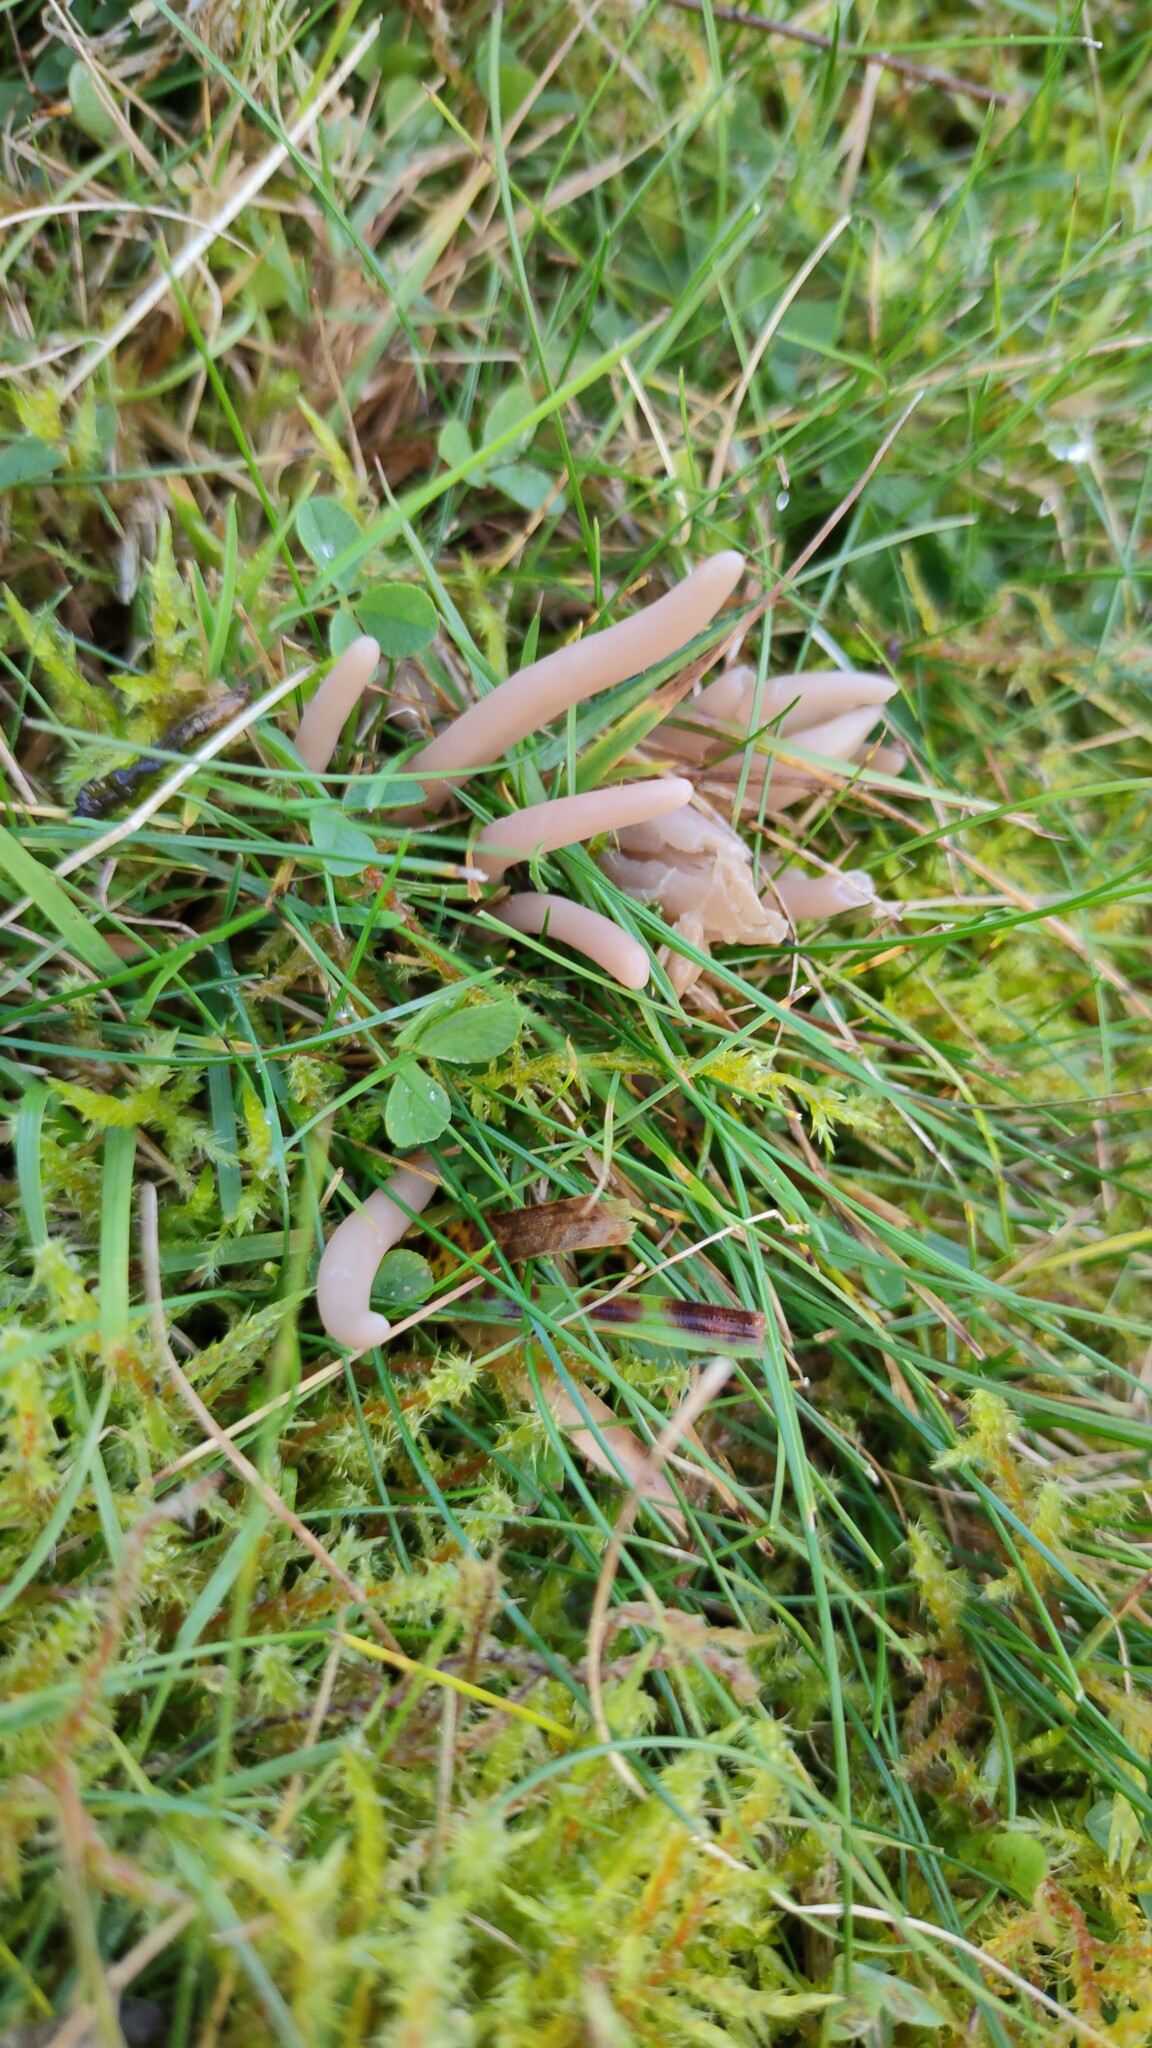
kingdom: Fungi
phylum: Basidiomycota
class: Agaricomycetes
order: Agaricales
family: Clavariaceae
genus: Clavaria
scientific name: Clavaria fumosa
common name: Smoky spindles
